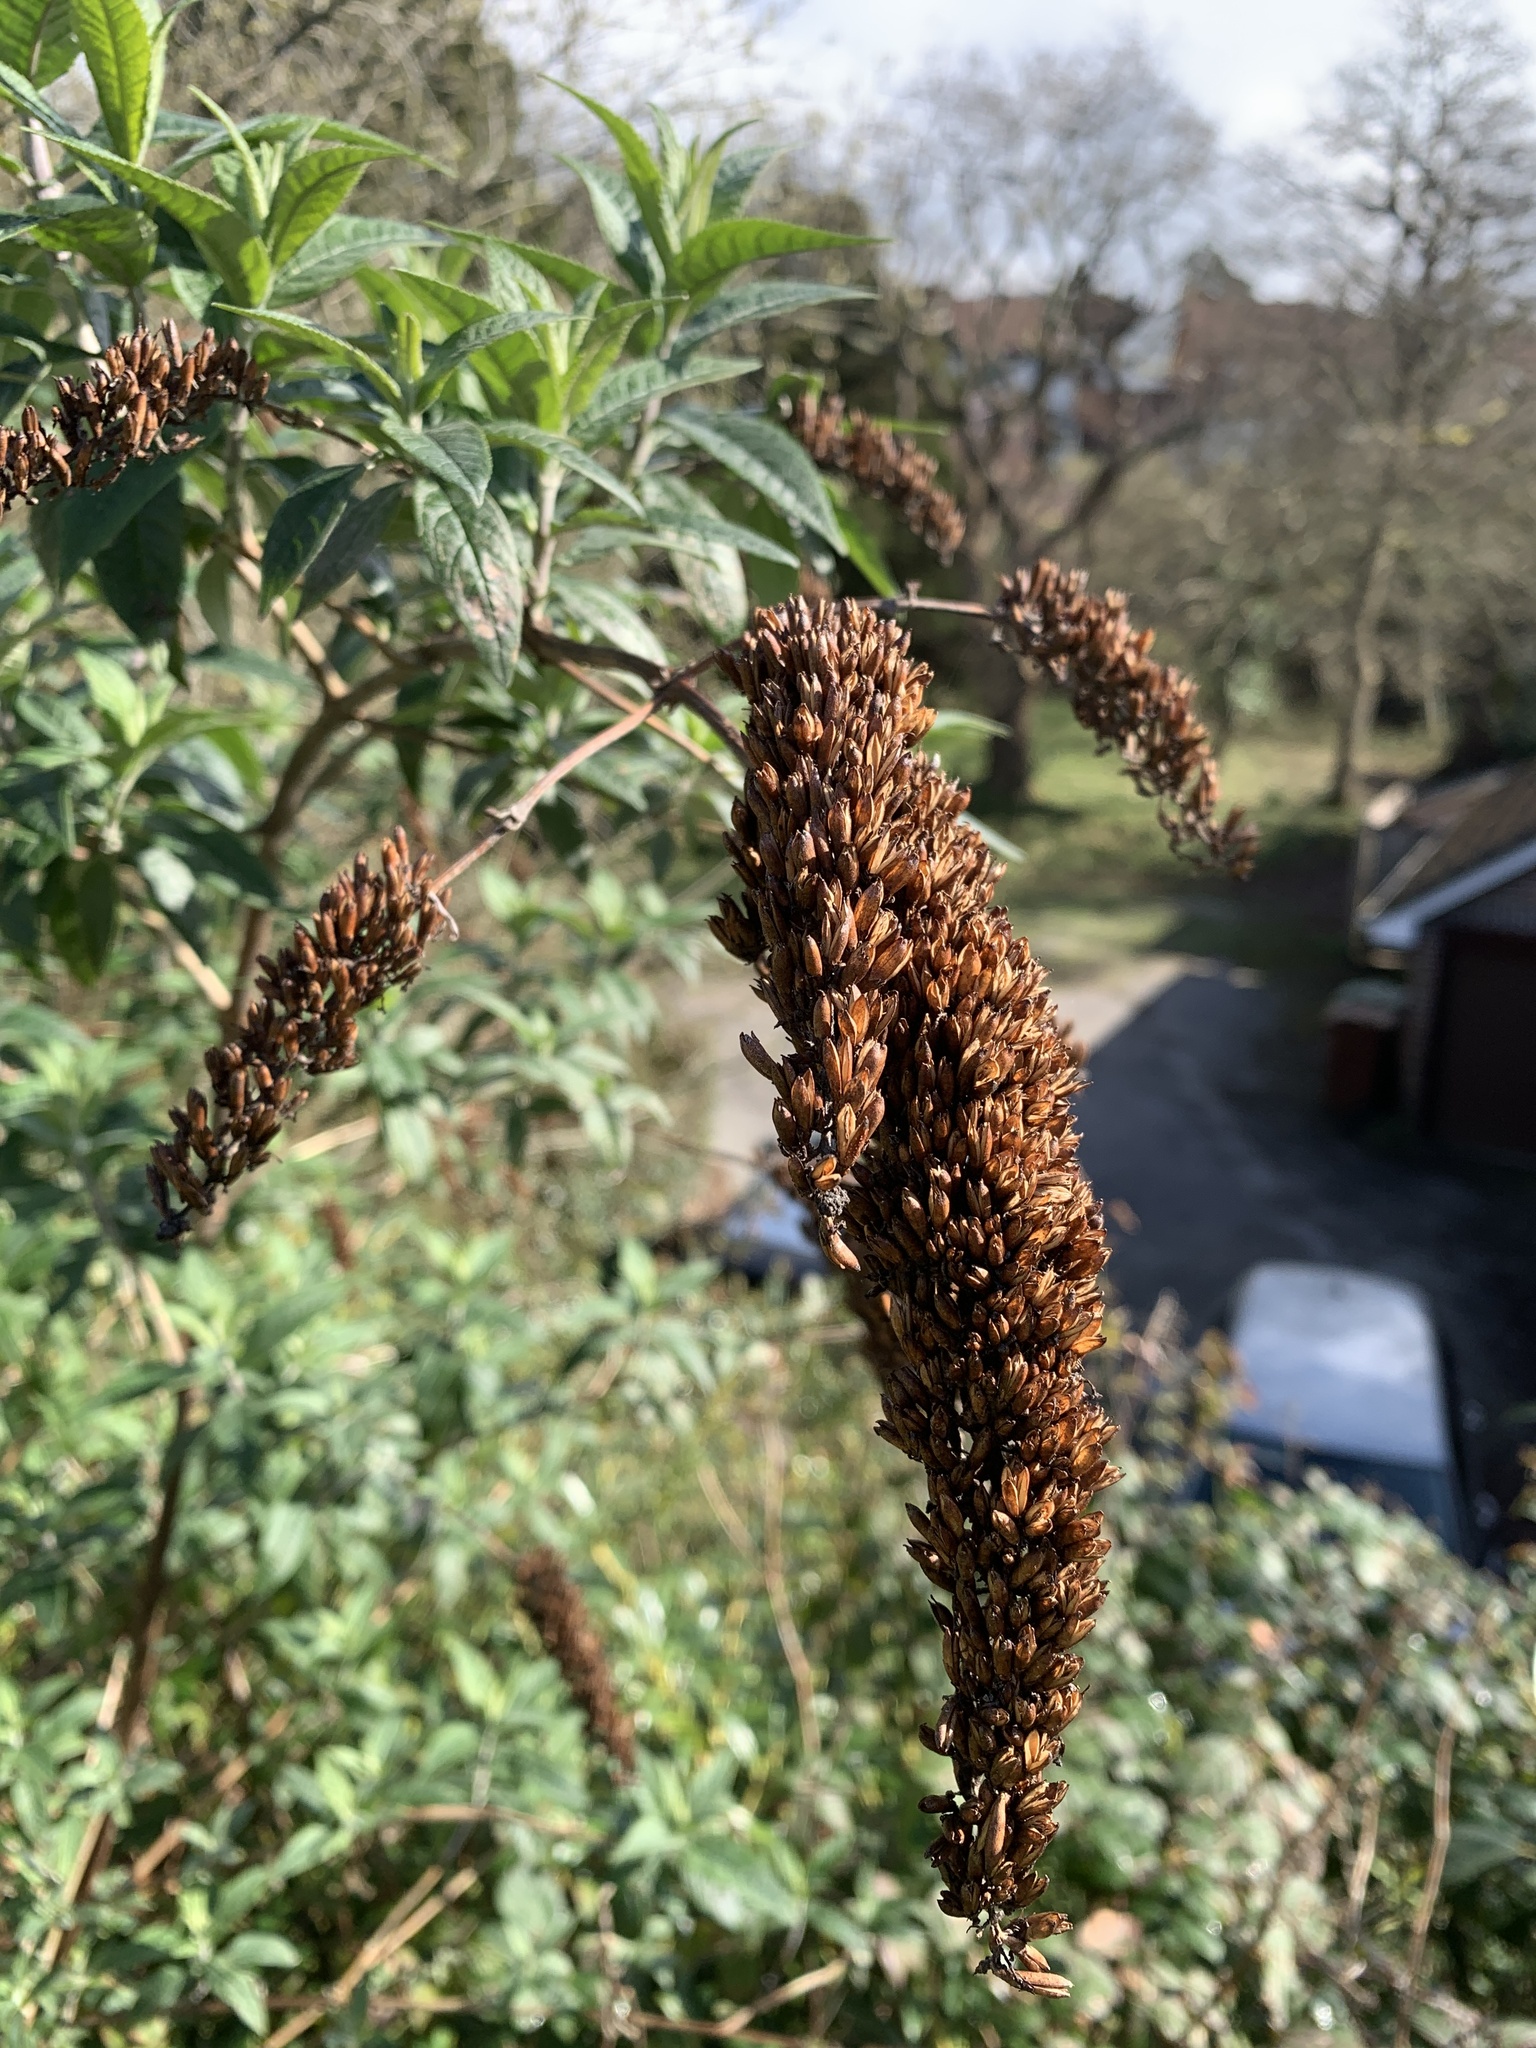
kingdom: Plantae
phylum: Tracheophyta
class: Magnoliopsida
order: Lamiales
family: Scrophulariaceae
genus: Buddleja
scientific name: Buddleja davidii
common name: Butterfly-bush
